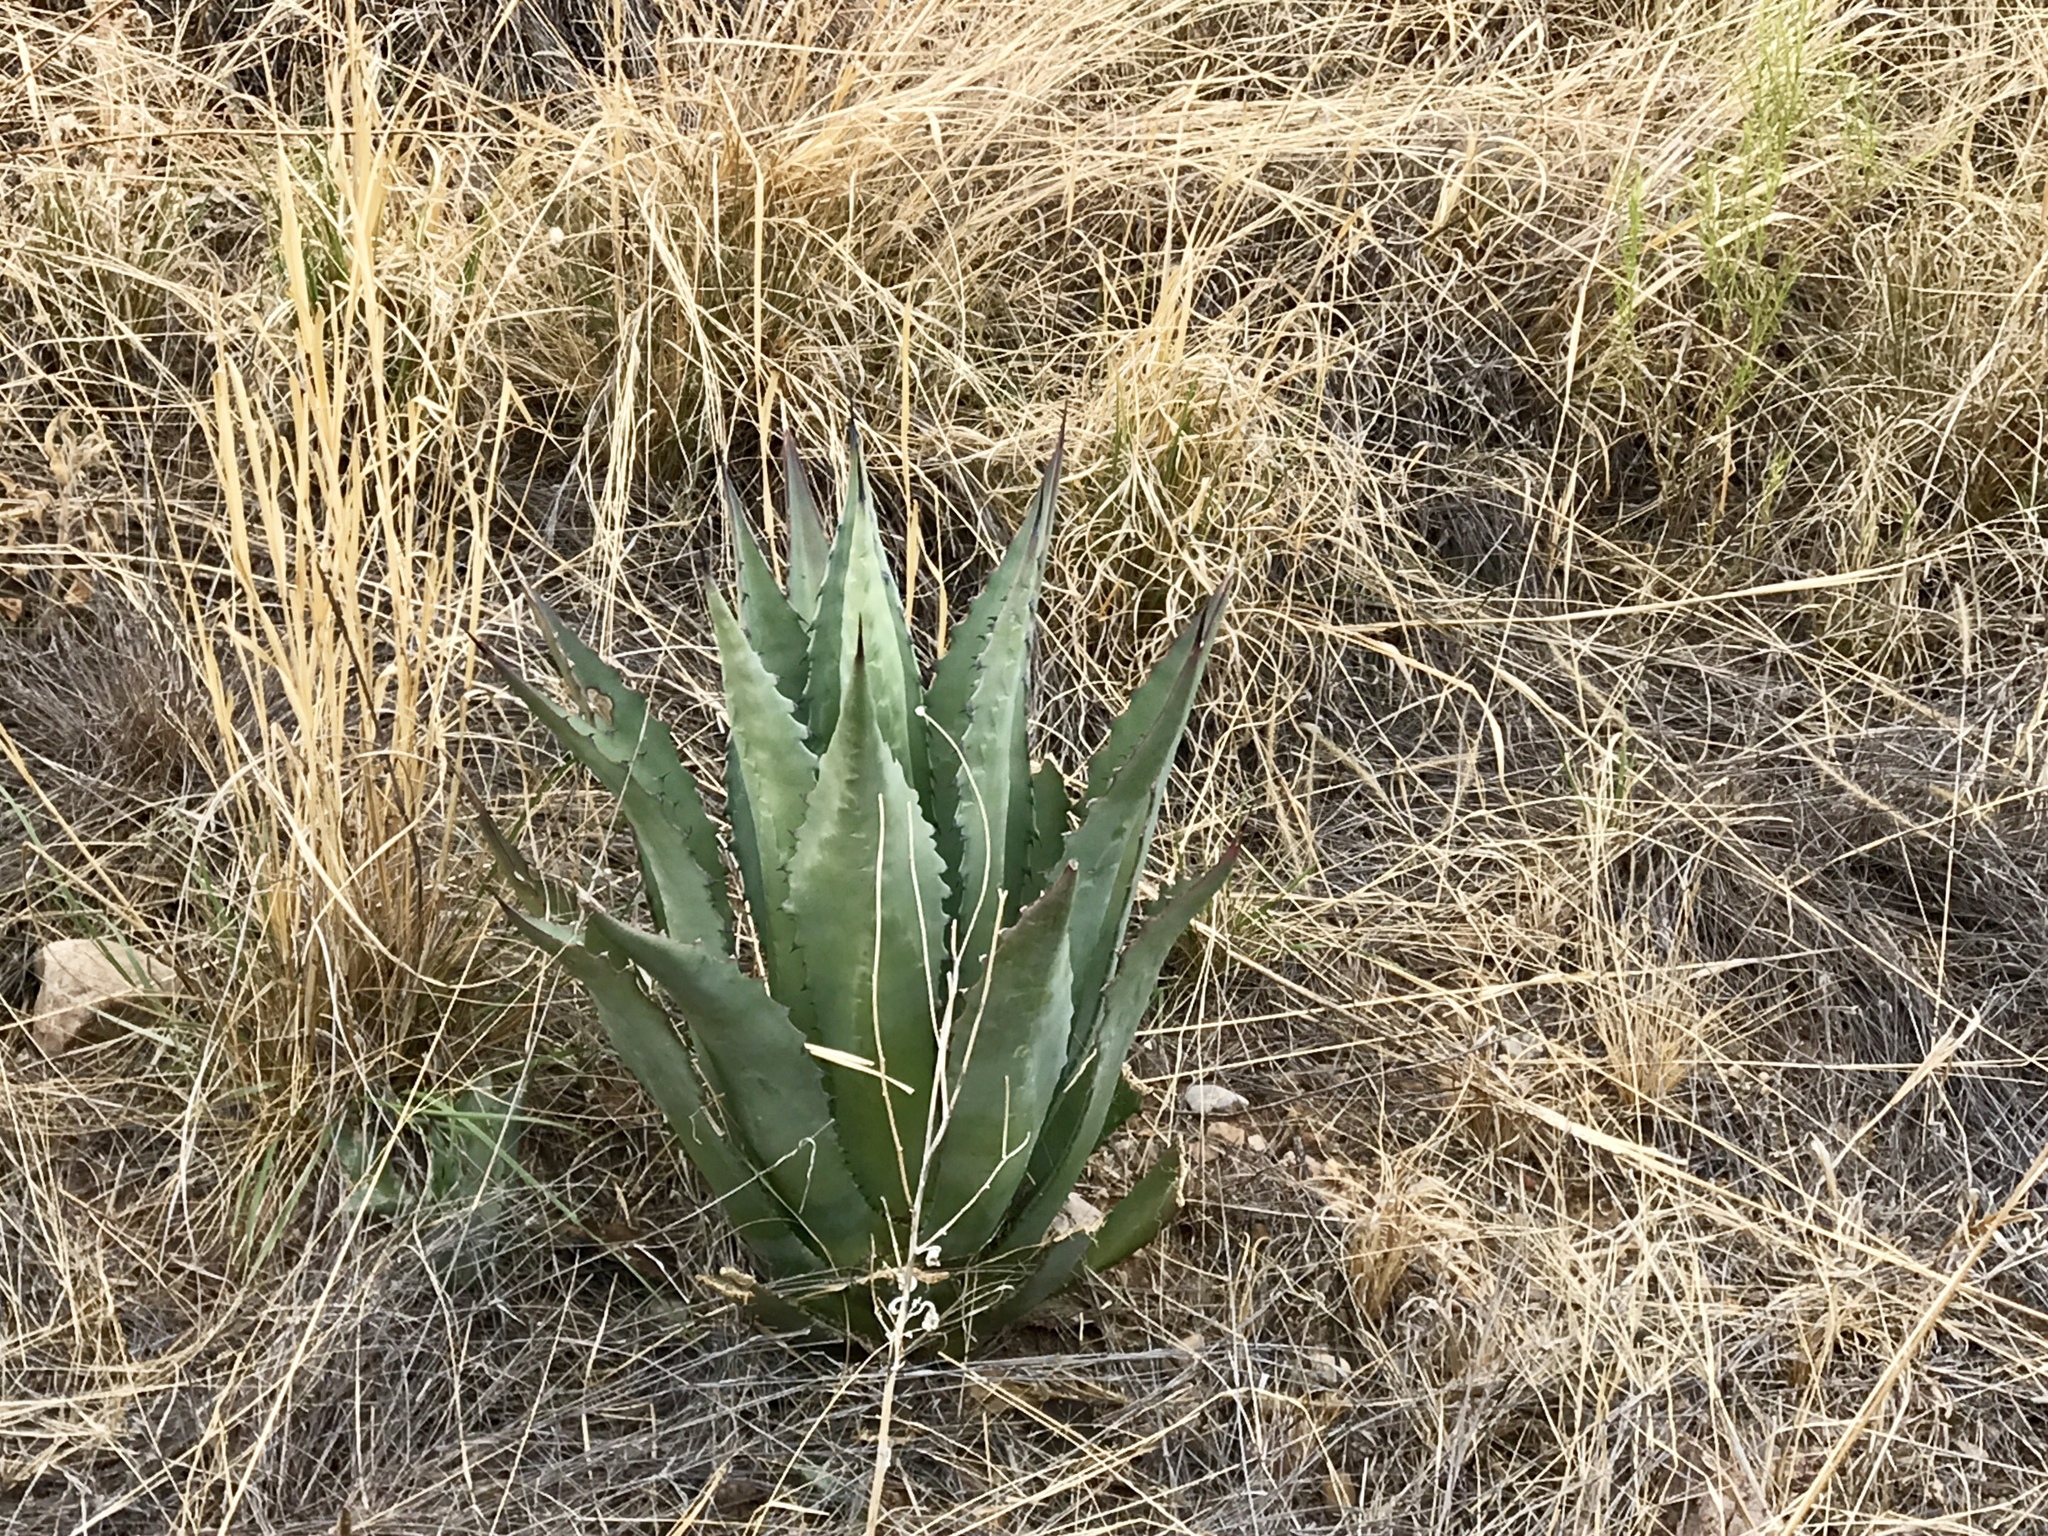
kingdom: Plantae
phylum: Tracheophyta
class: Liliopsida
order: Asparagales
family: Asparagaceae
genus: Agave
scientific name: Agave shrevei
